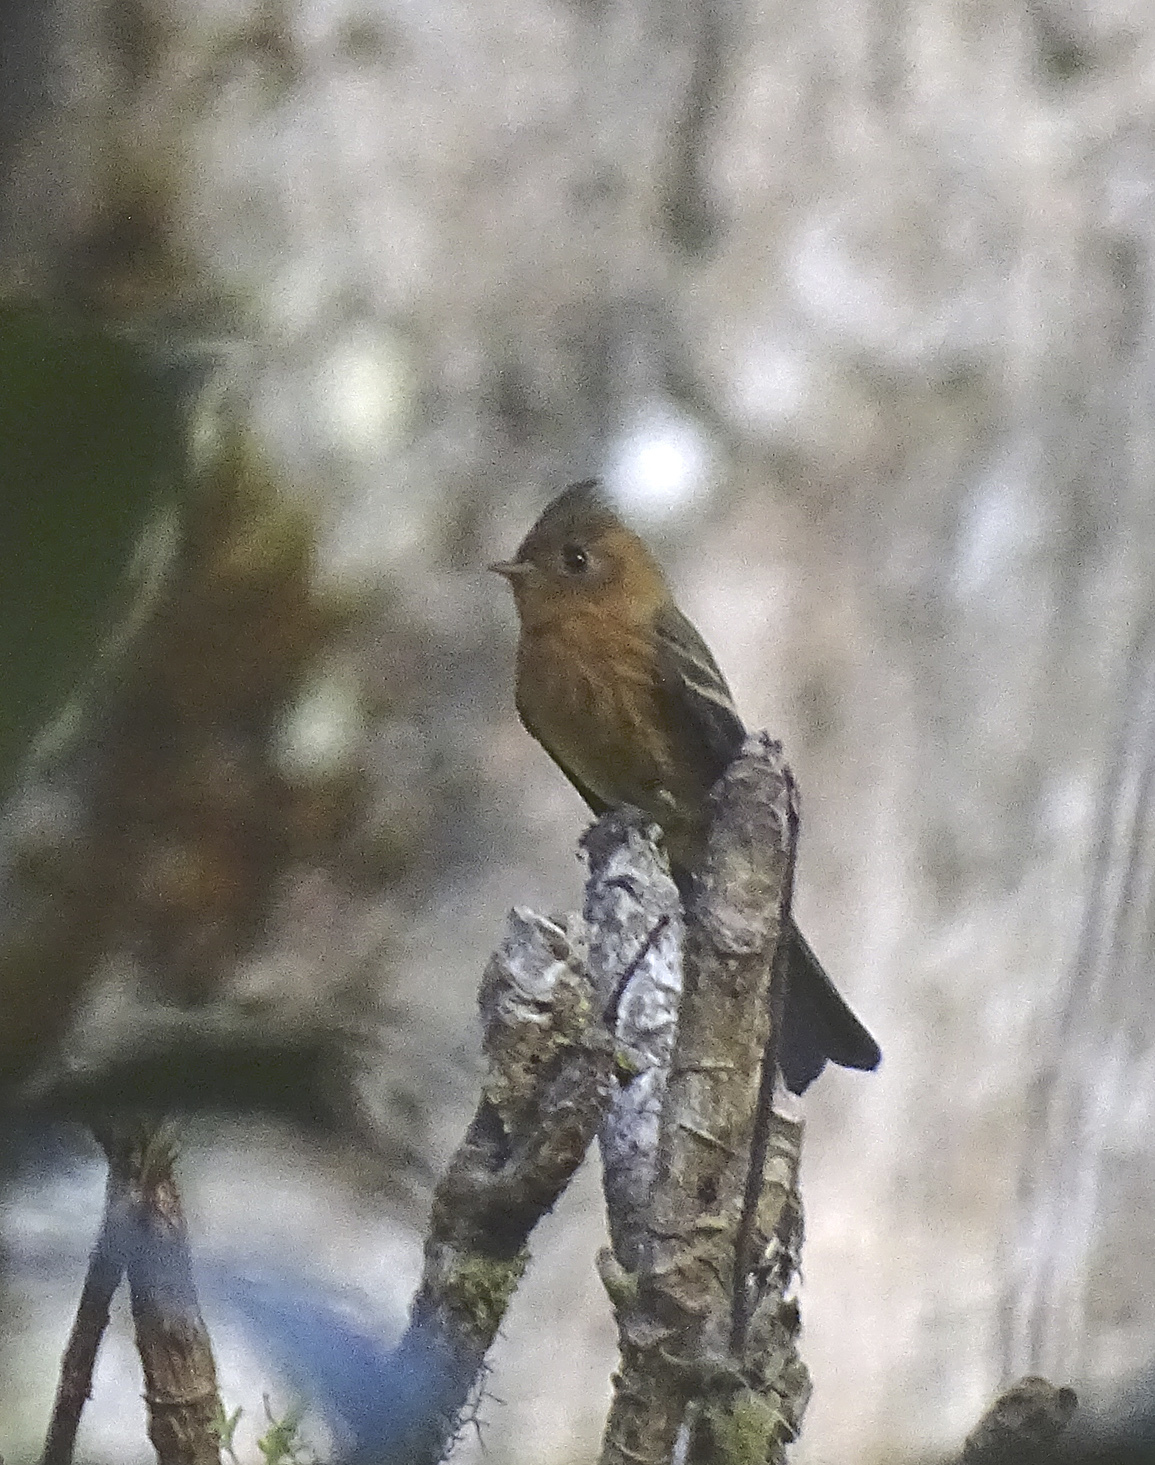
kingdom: Animalia
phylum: Chordata
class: Aves
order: Passeriformes
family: Tyrannidae
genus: Mitrephanes
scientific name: Mitrephanes phaeocercus
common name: Northern tufted flycatcher
